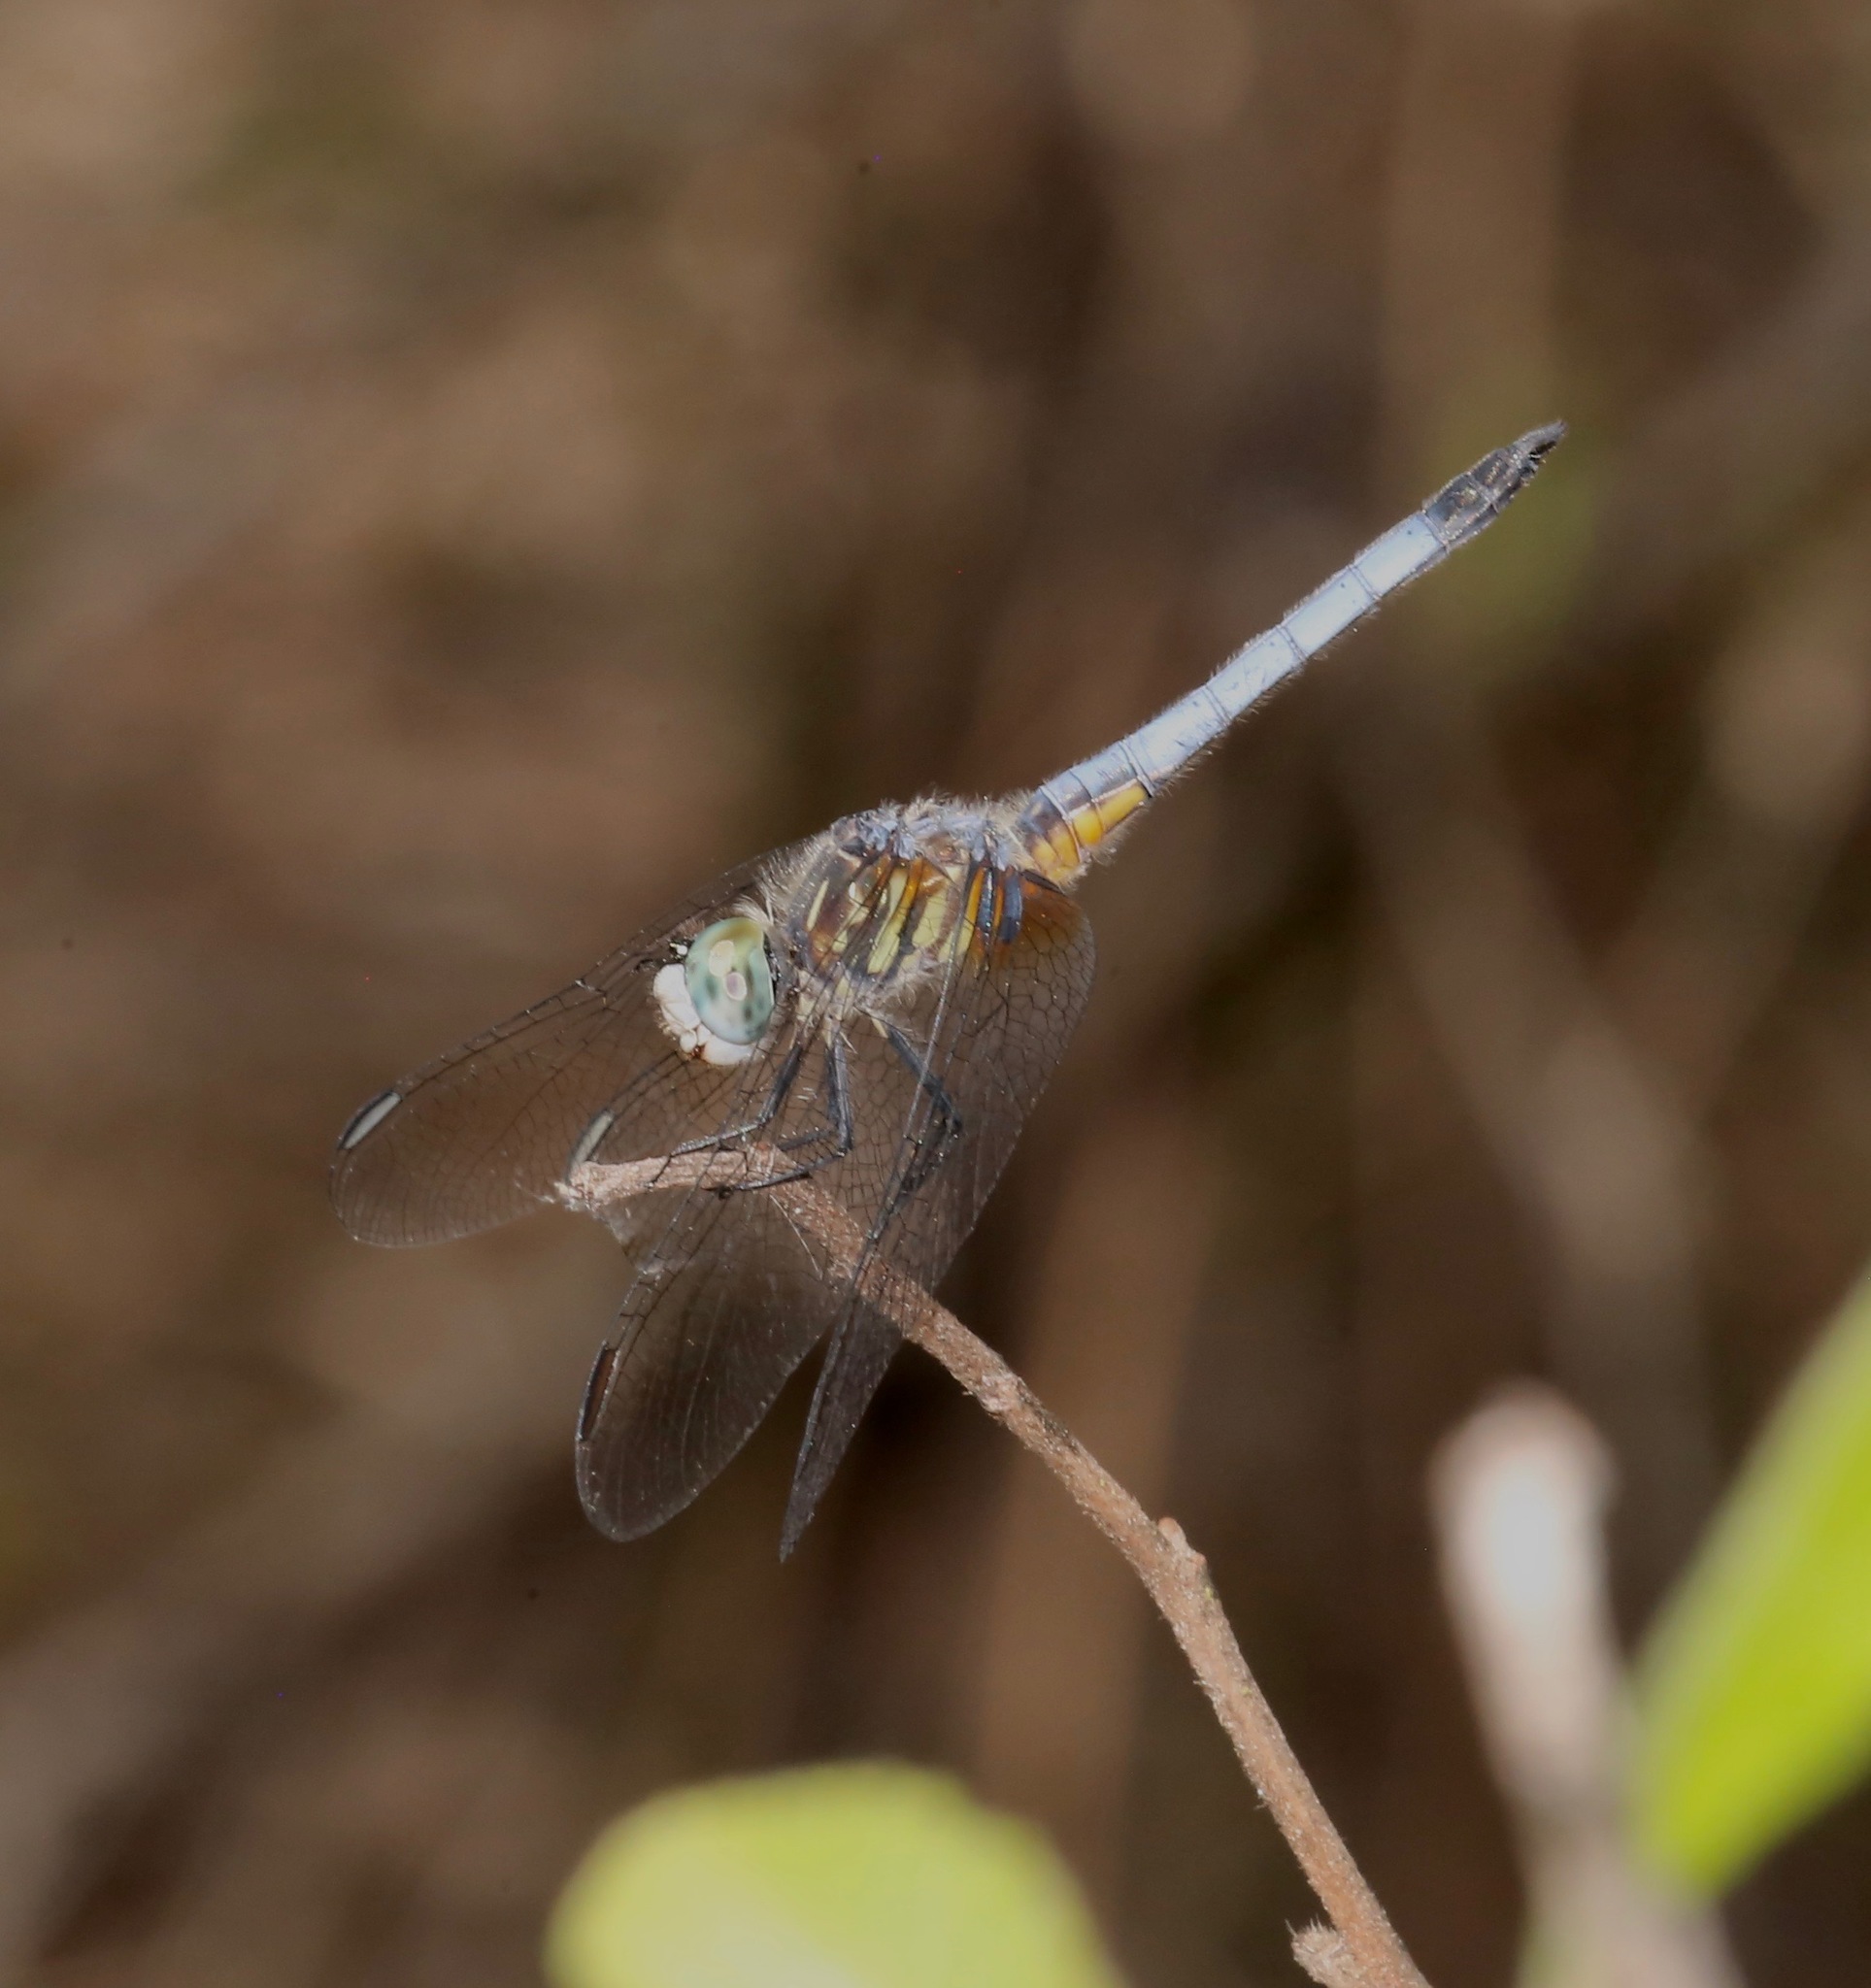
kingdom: Animalia
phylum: Arthropoda
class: Insecta
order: Odonata
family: Libellulidae
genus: Pachydiplax
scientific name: Pachydiplax longipennis
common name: Blue dasher
